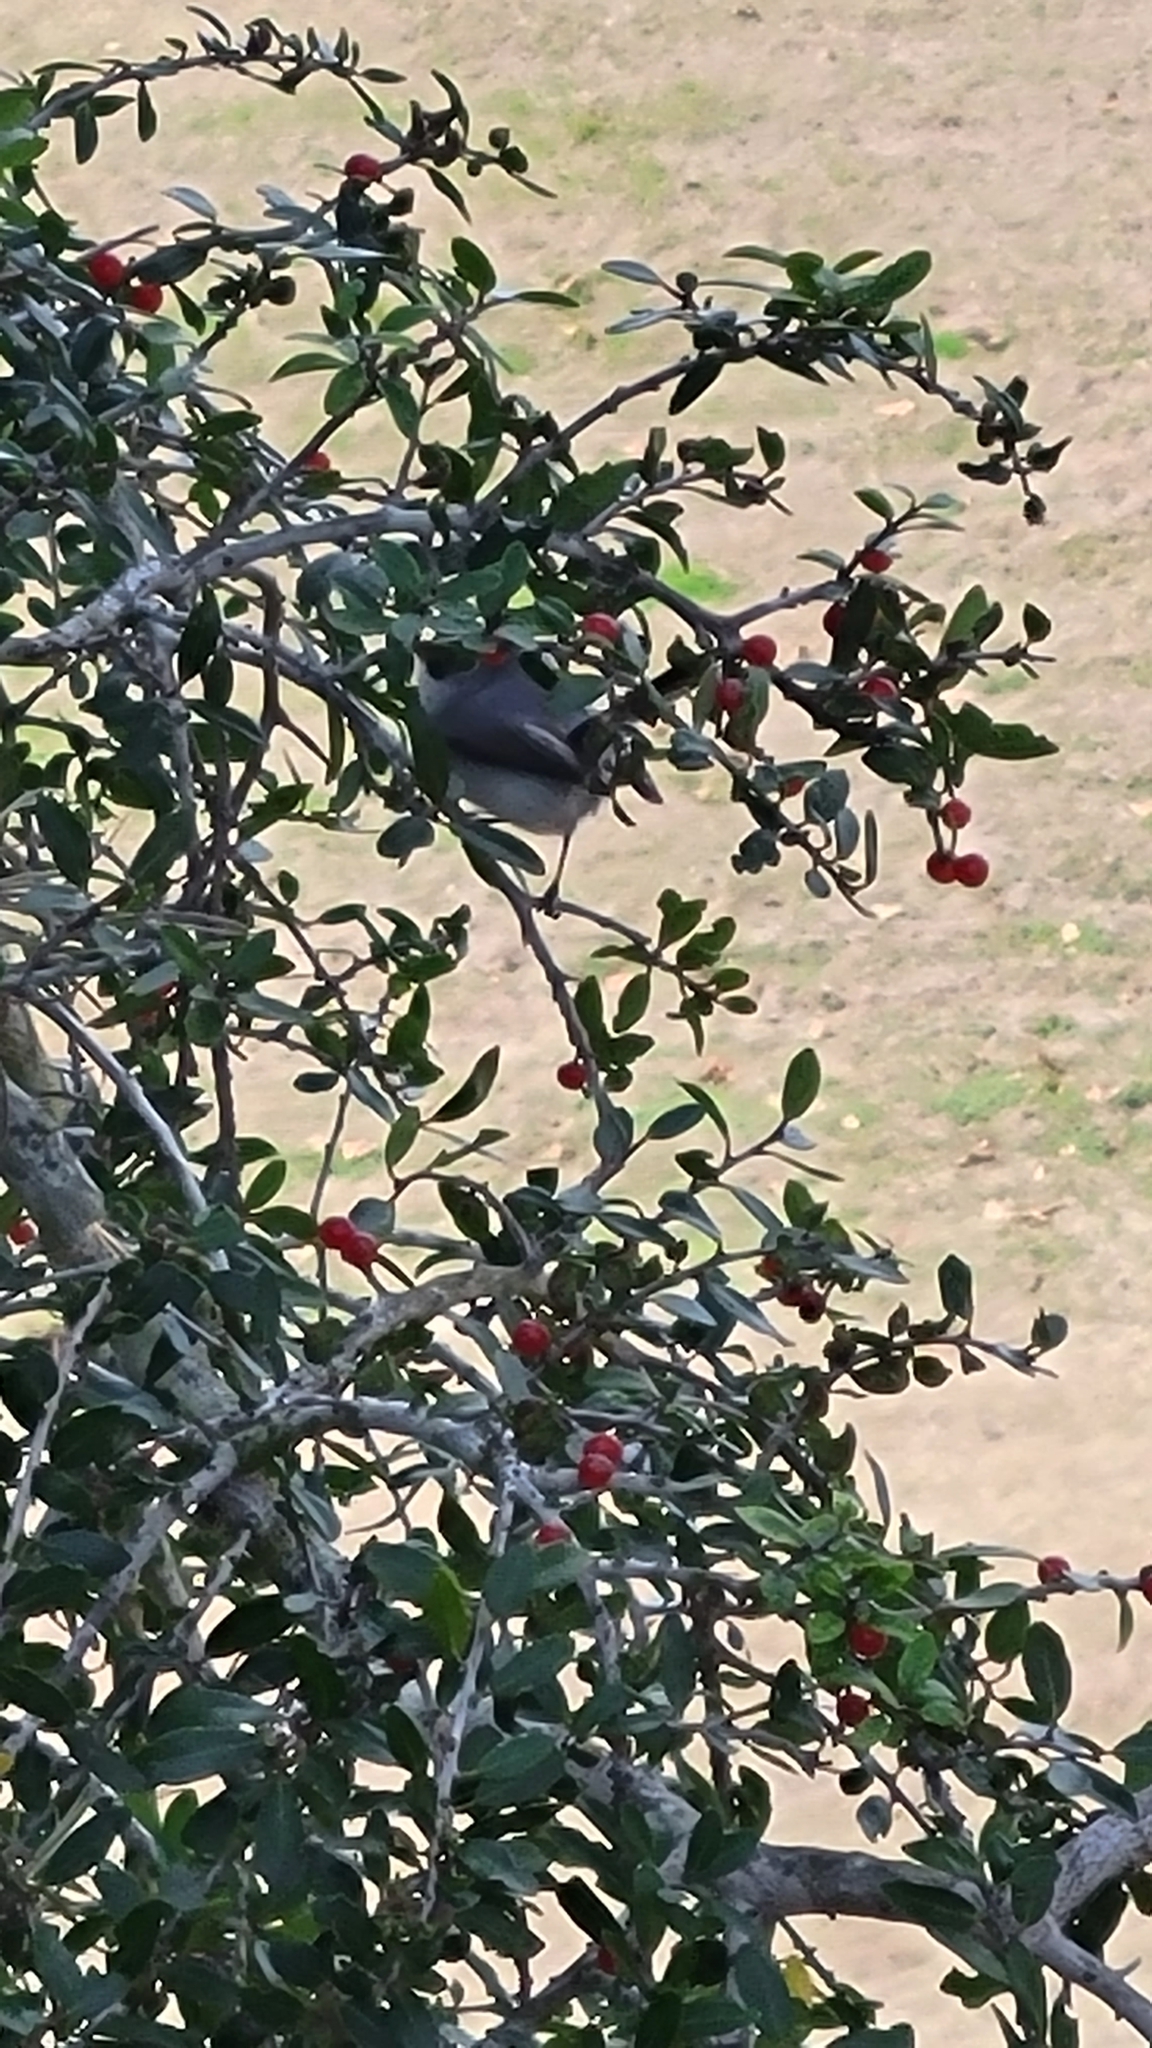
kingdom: Animalia
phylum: Chordata
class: Aves
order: Passeriformes
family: Polioptilidae
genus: Polioptila
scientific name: Polioptila caerulea
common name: Blue-gray gnatcatcher
